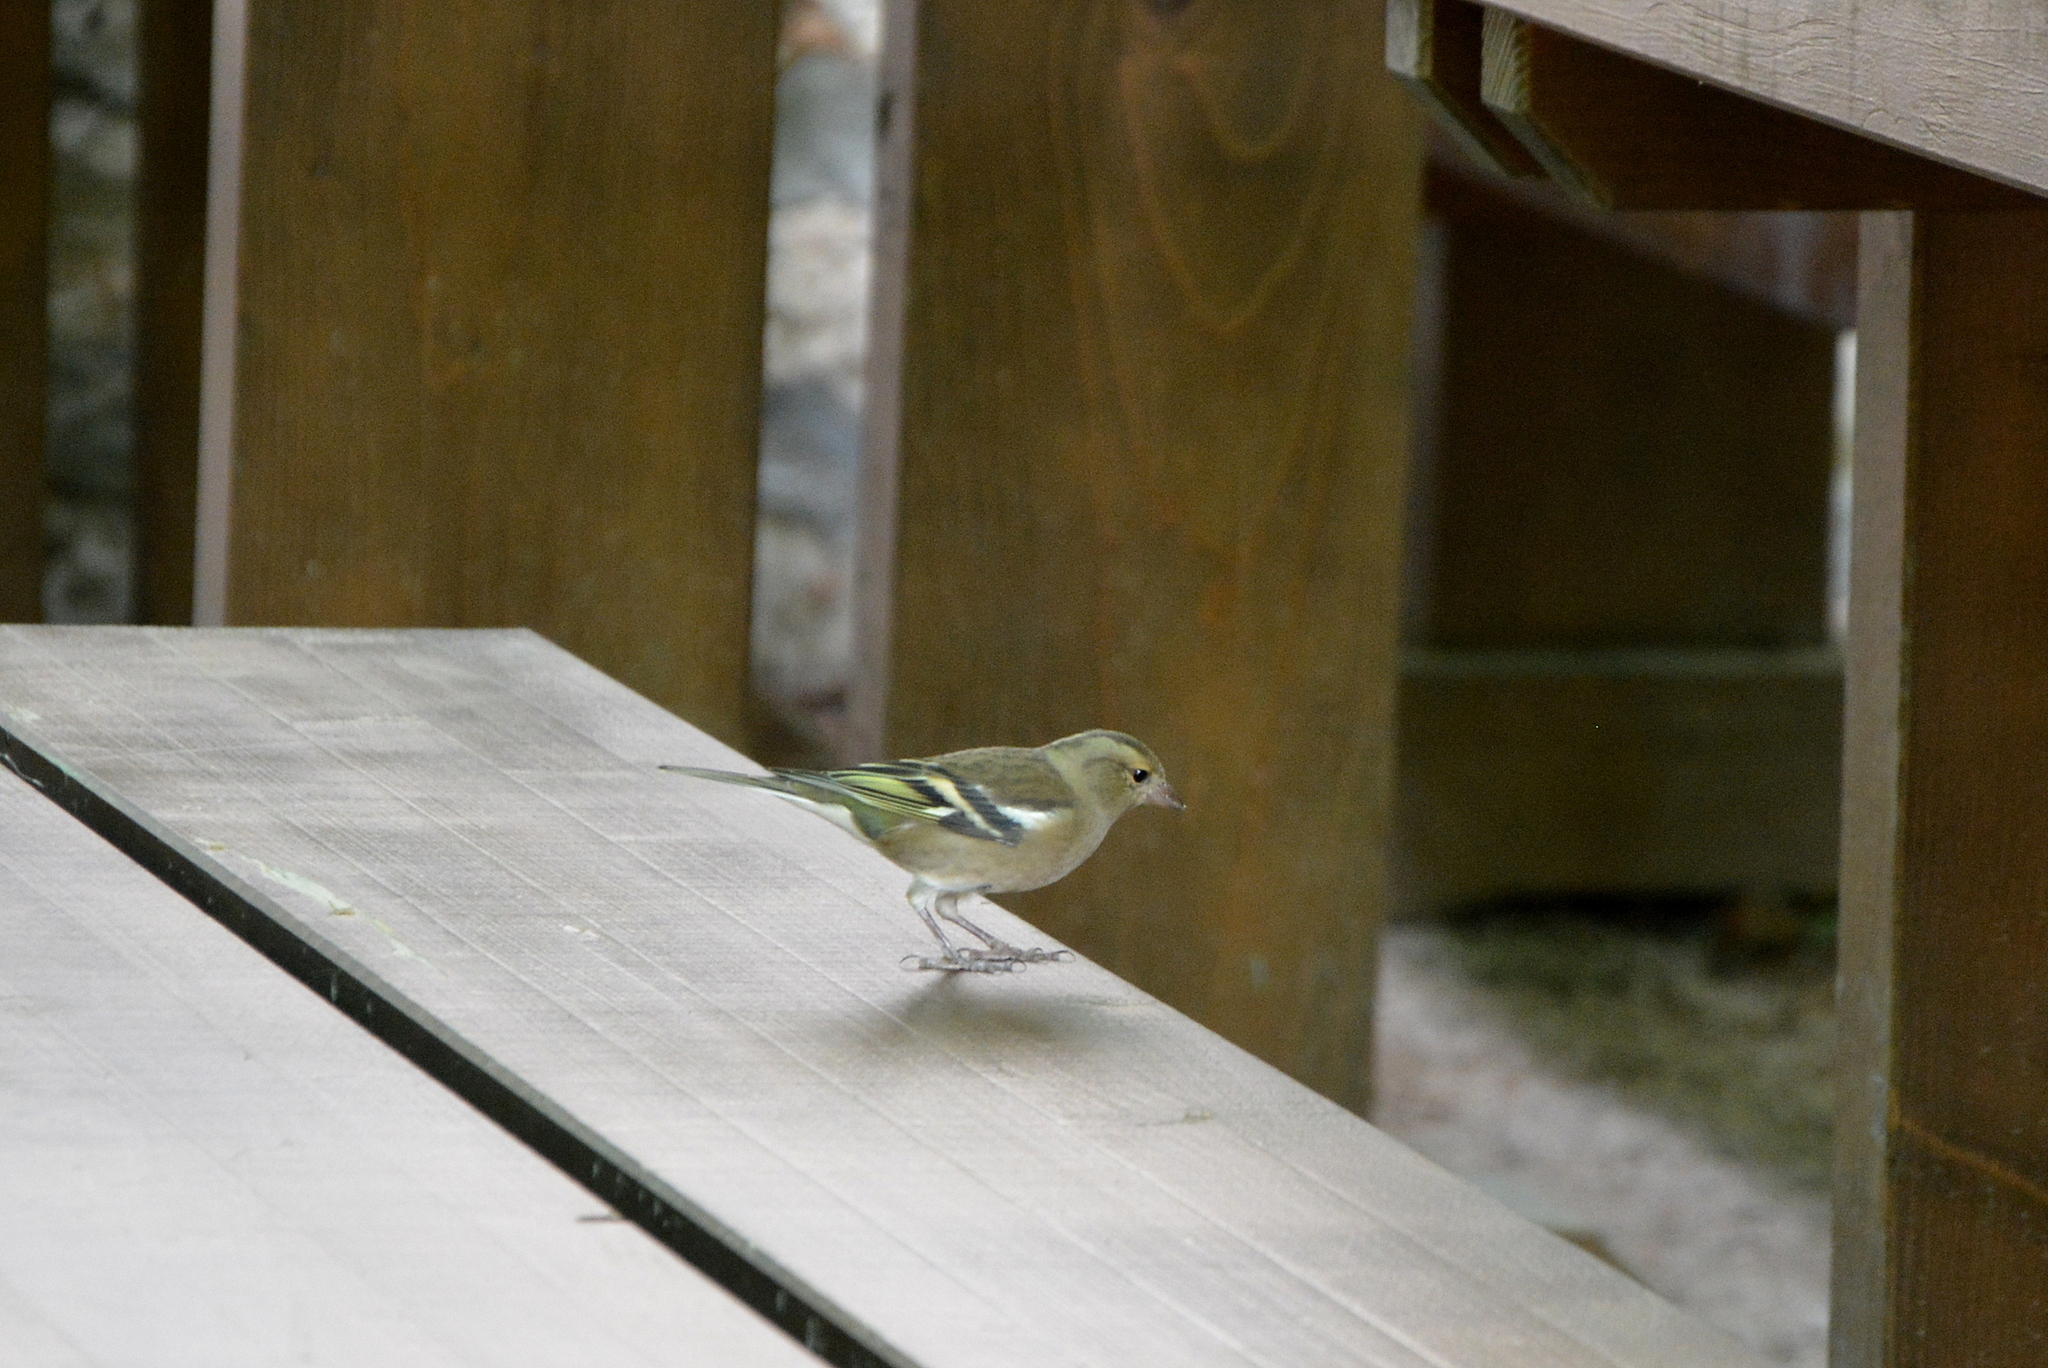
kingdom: Animalia
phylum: Chordata
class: Aves
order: Passeriformes
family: Fringillidae
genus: Fringilla
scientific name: Fringilla coelebs
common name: Common chaffinch
